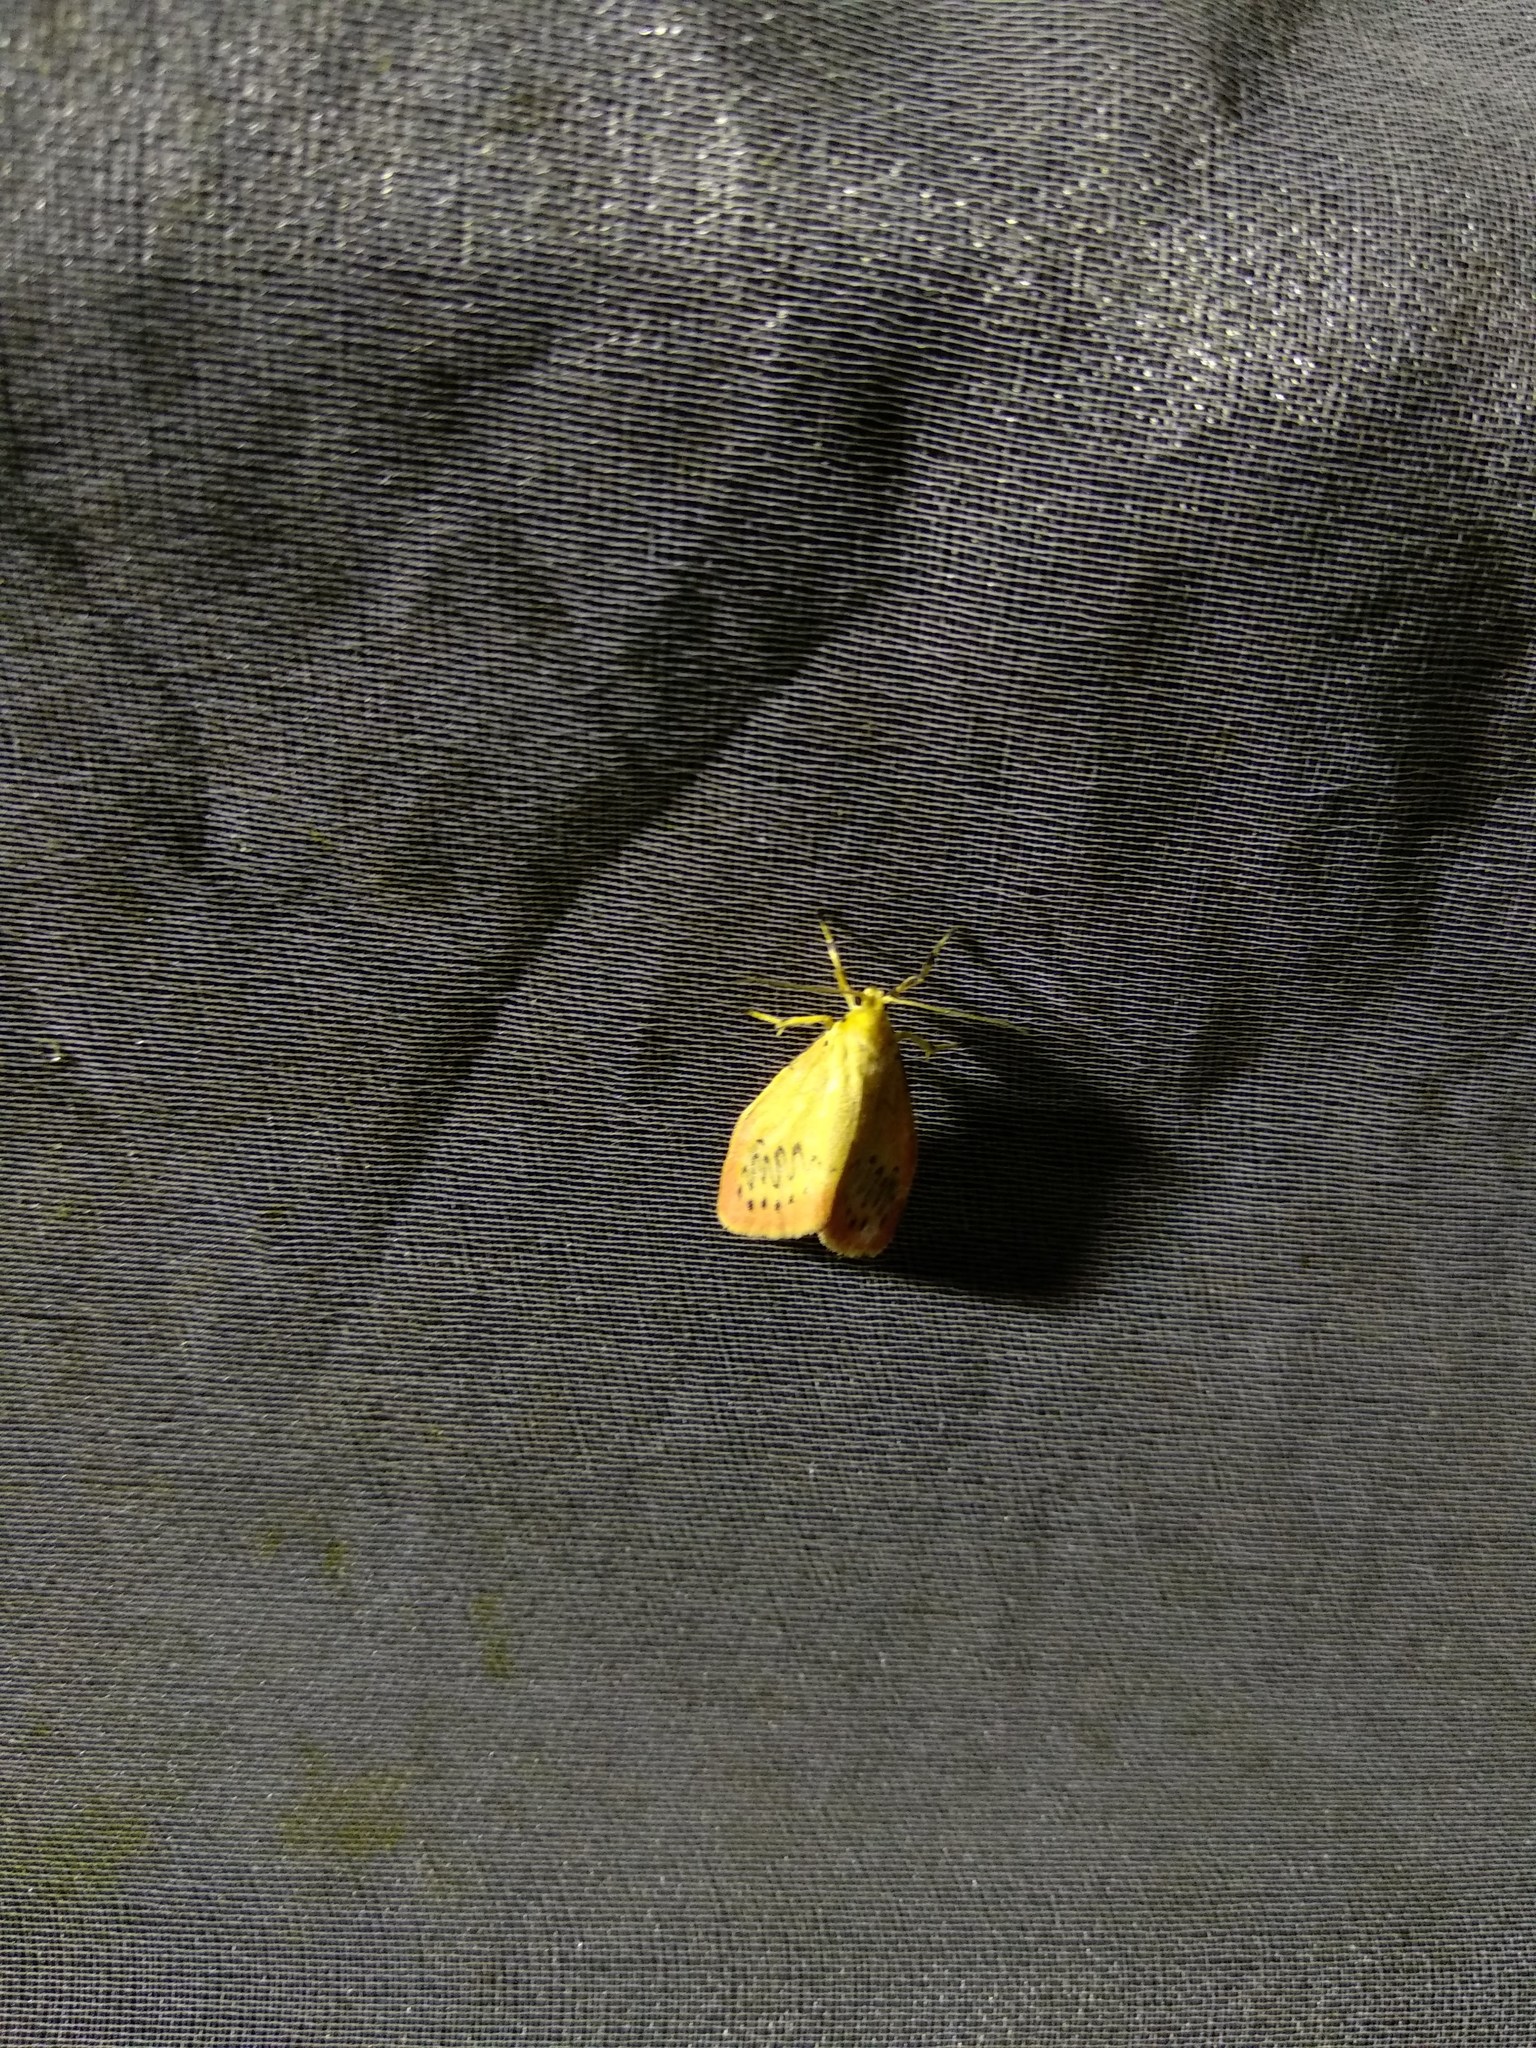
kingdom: Animalia
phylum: Arthropoda
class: Insecta
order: Lepidoptera
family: Erebidae
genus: Miltochrista
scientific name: Miltochrista miniata
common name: Rosy footman
